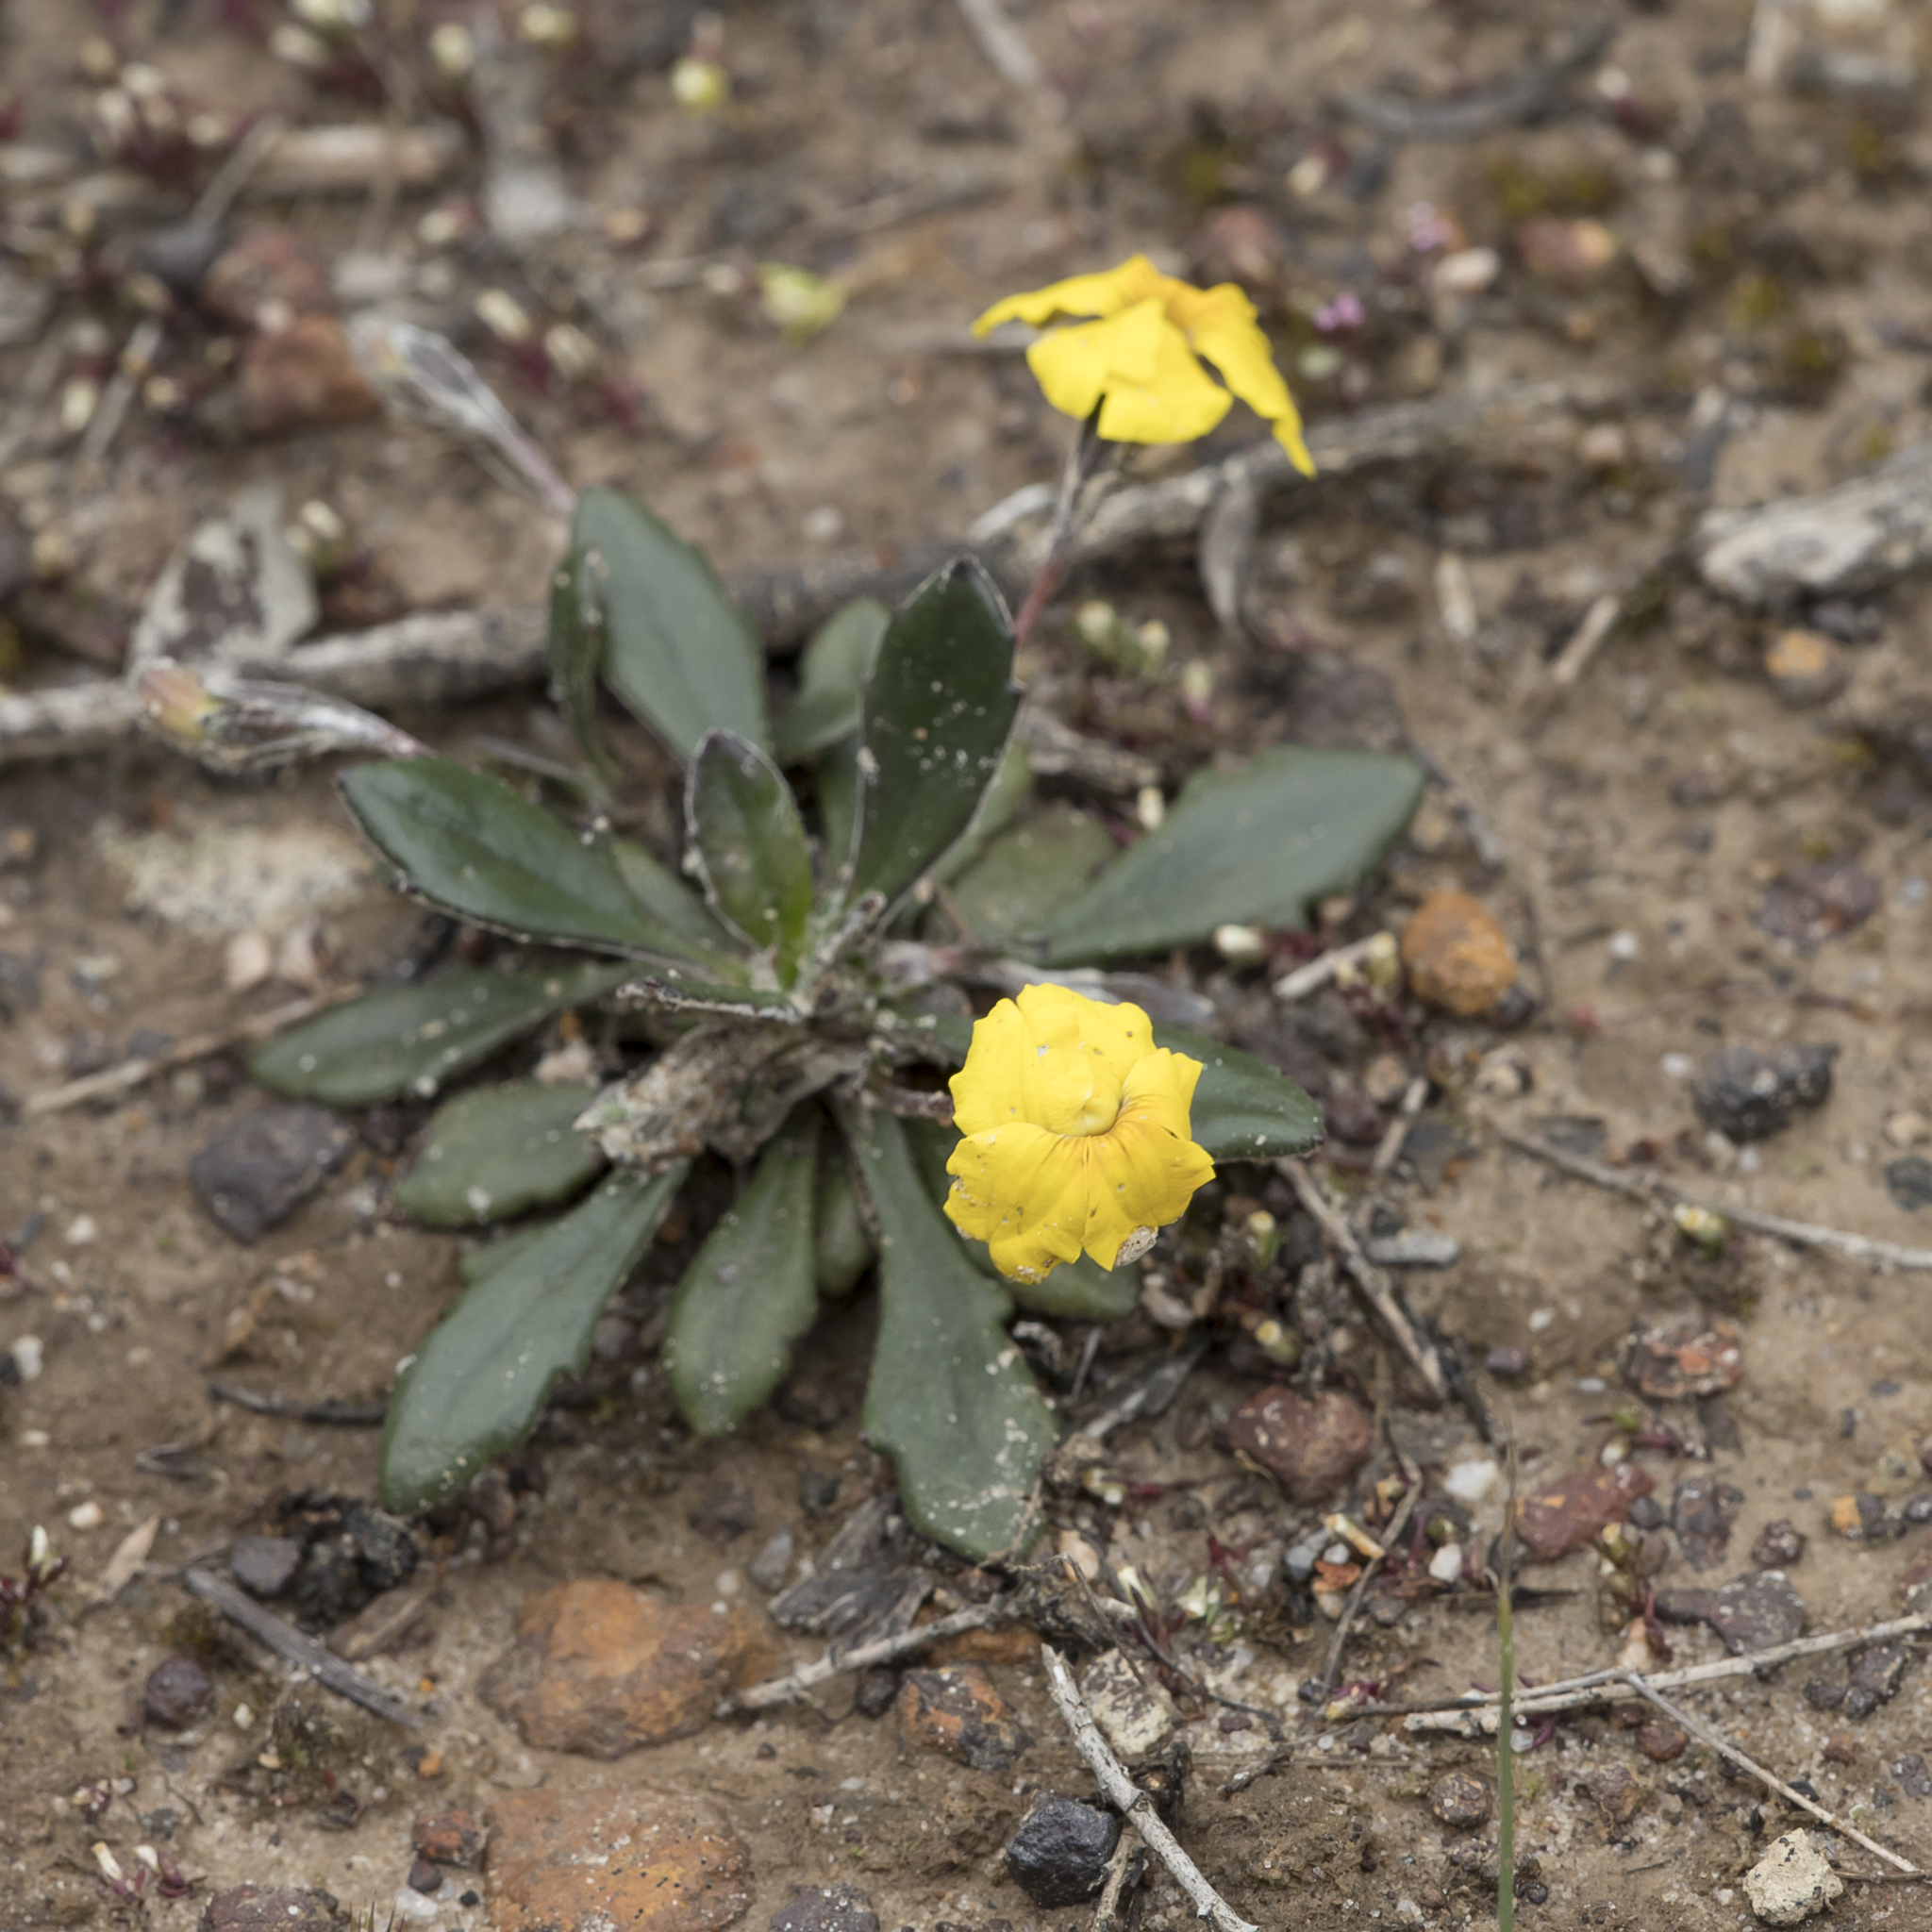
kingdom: Plantae
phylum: Tracheophyta
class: Magnoliopsida
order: Asterales
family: Goodeniaceae
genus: Goodenia
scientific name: Goodenia blackiana
